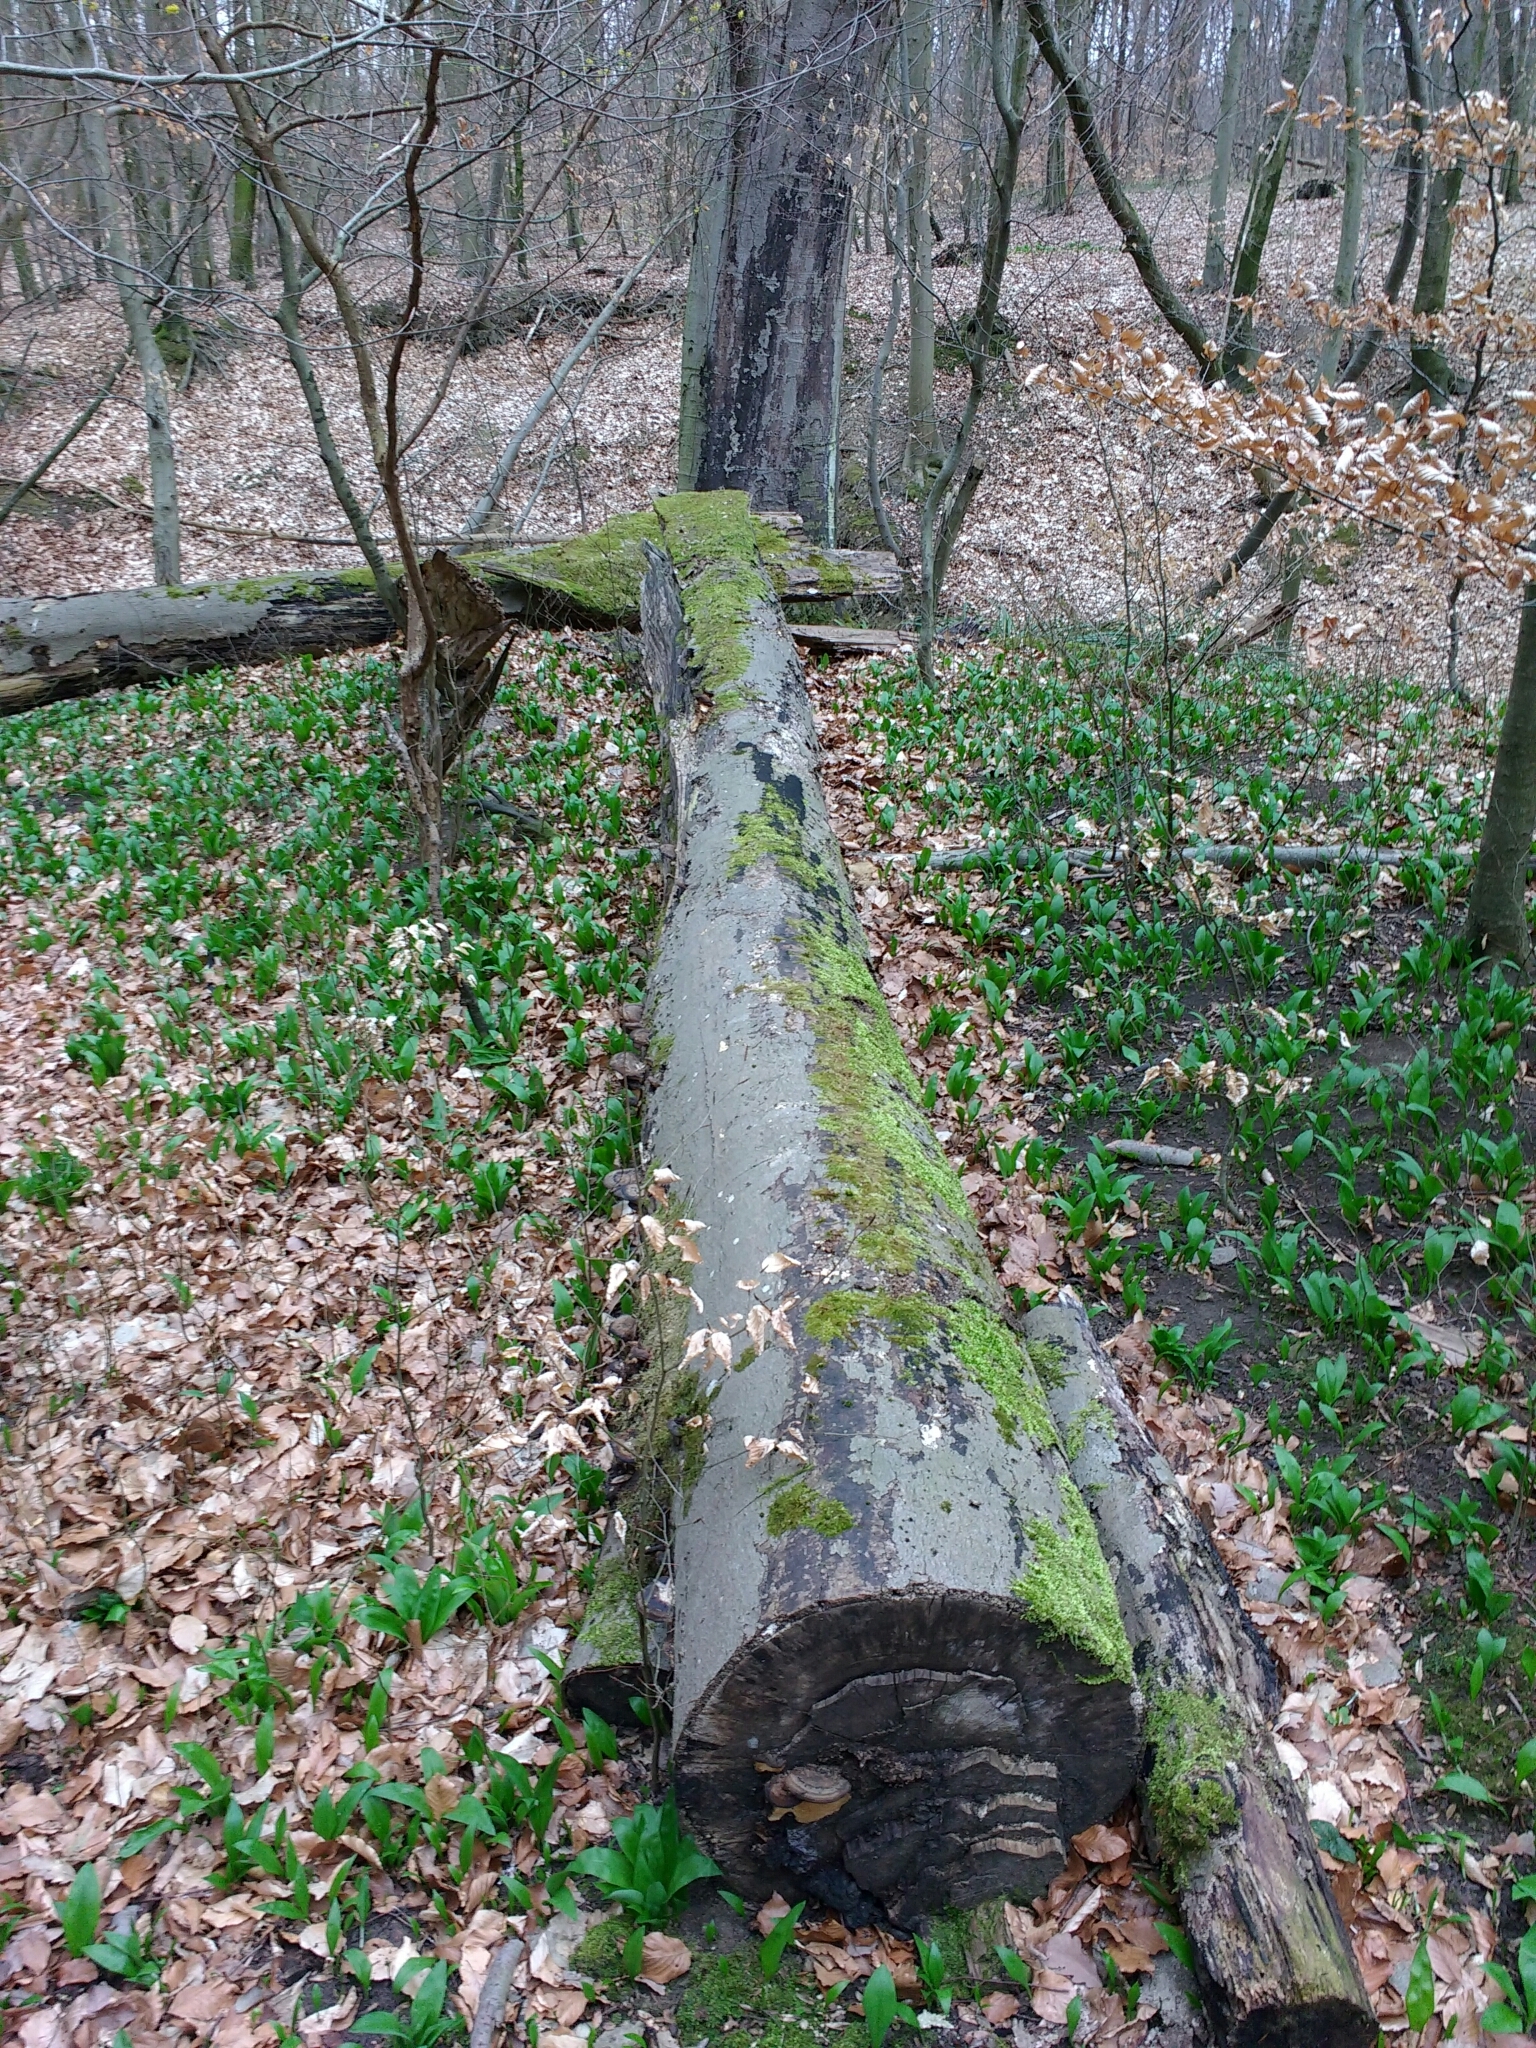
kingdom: Fungi
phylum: Basidiomycota
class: Agaricomycetes
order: Polyporales
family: Ischnodermataceae
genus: Ischnoderma
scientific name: Ischnoderma resinosum
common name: Resinous polypore
